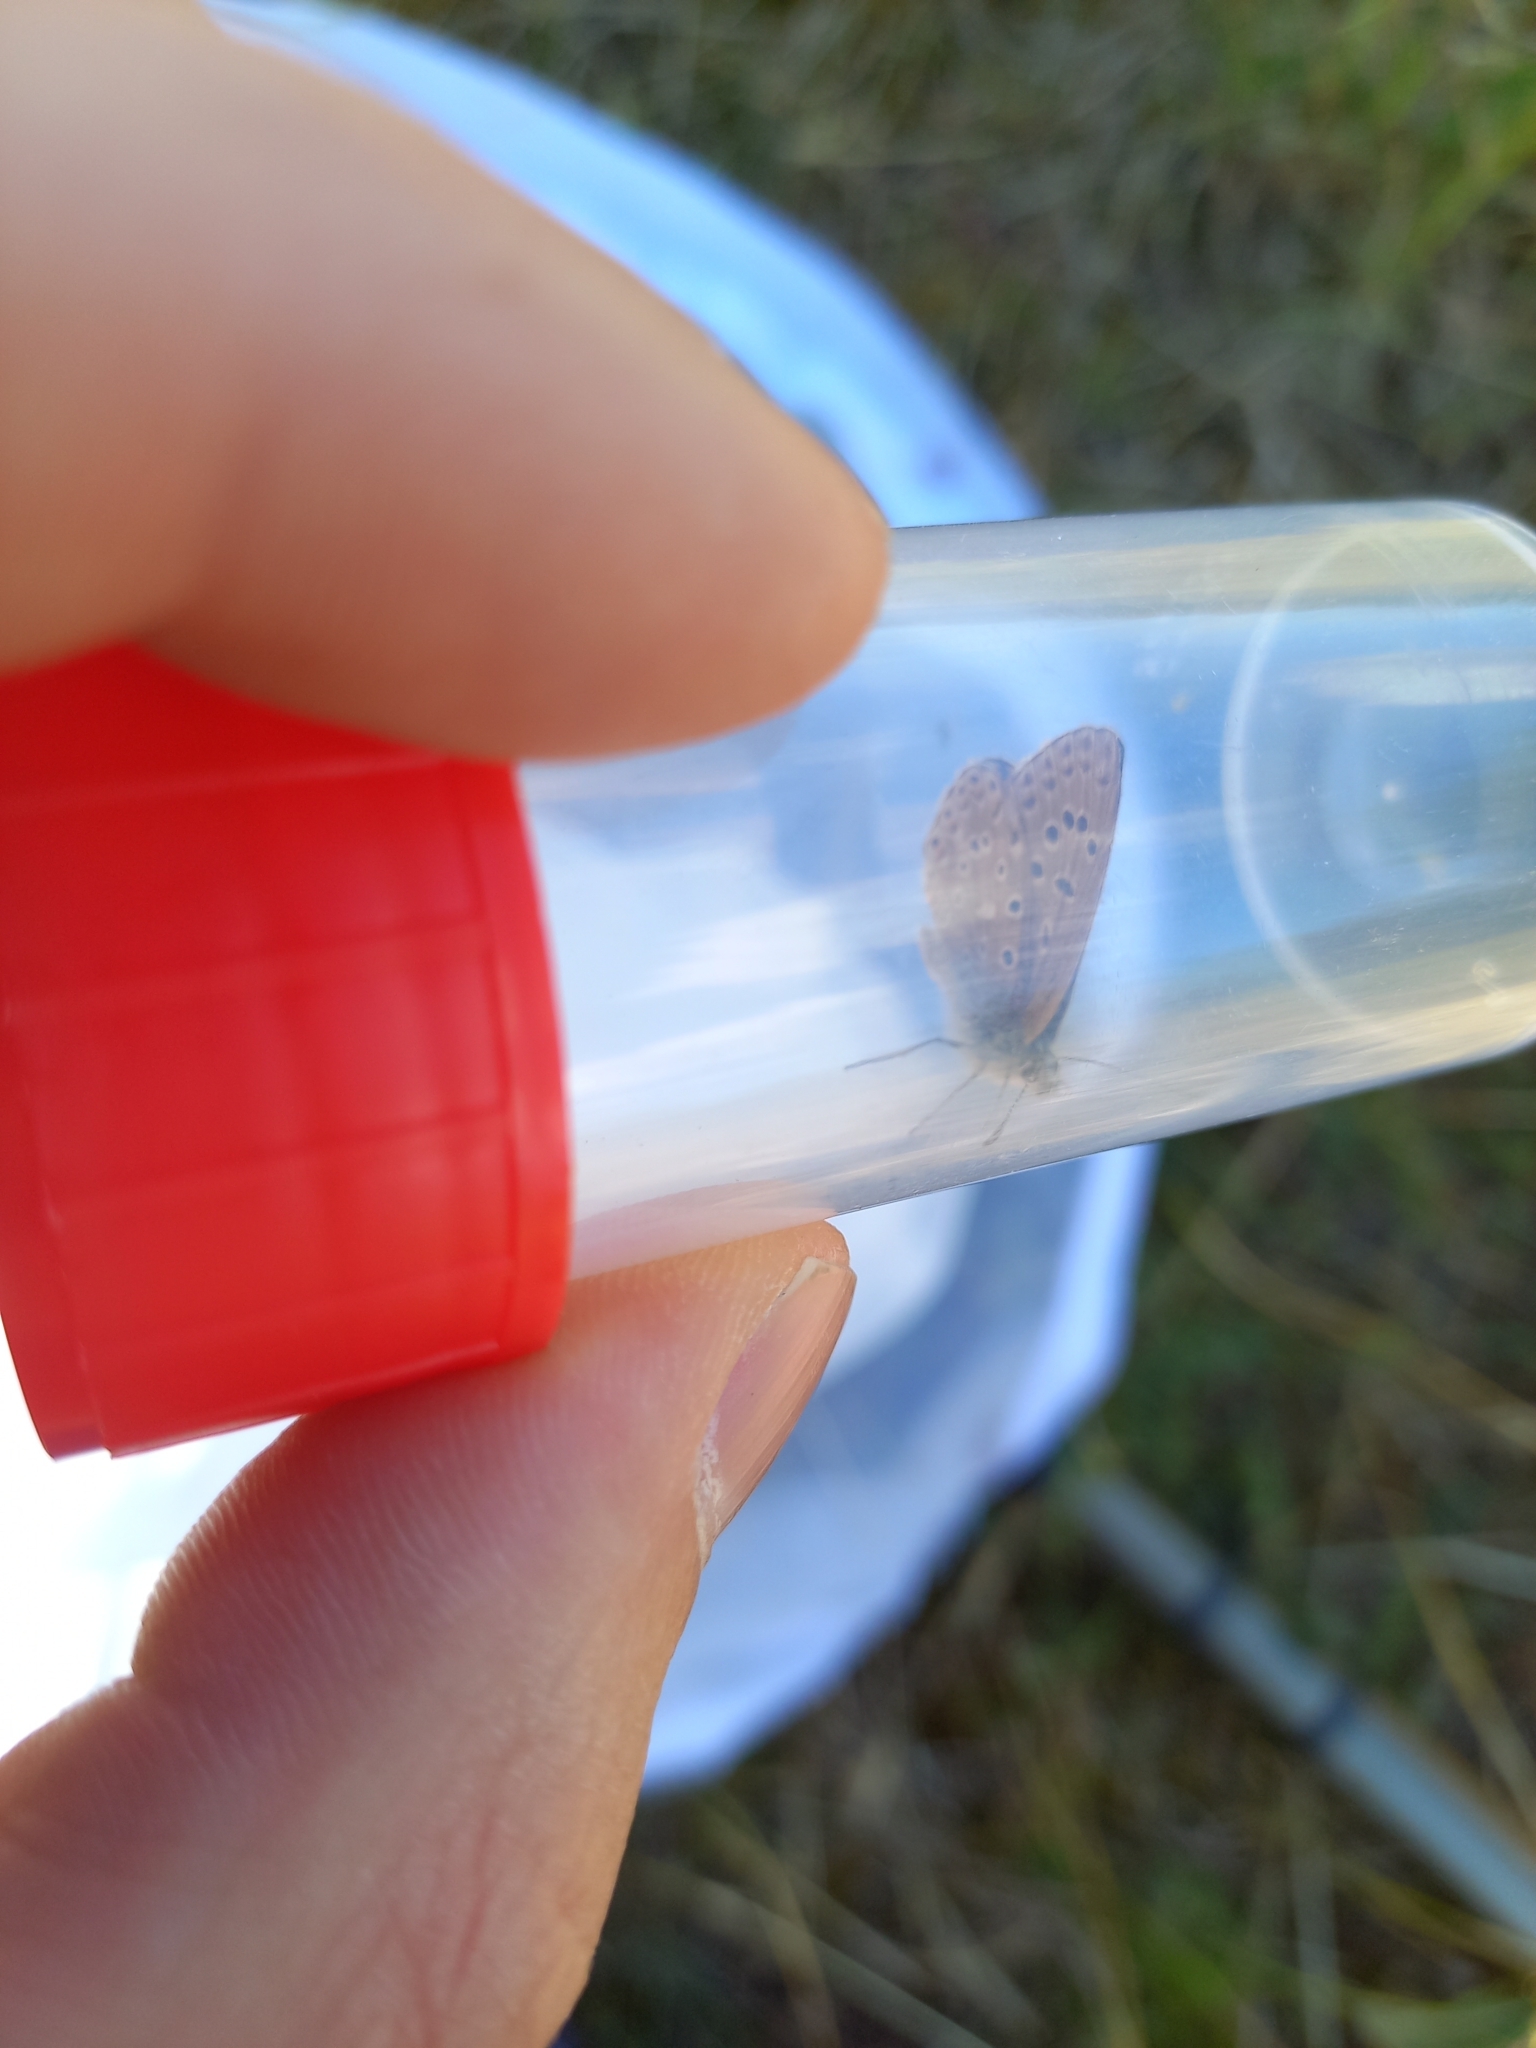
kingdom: Animalia
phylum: Arthropoda
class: Insecta
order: Lepidoptera
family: Lycaenidae
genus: Lysandra
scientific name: Lysandra bellargus
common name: Adonis blue
